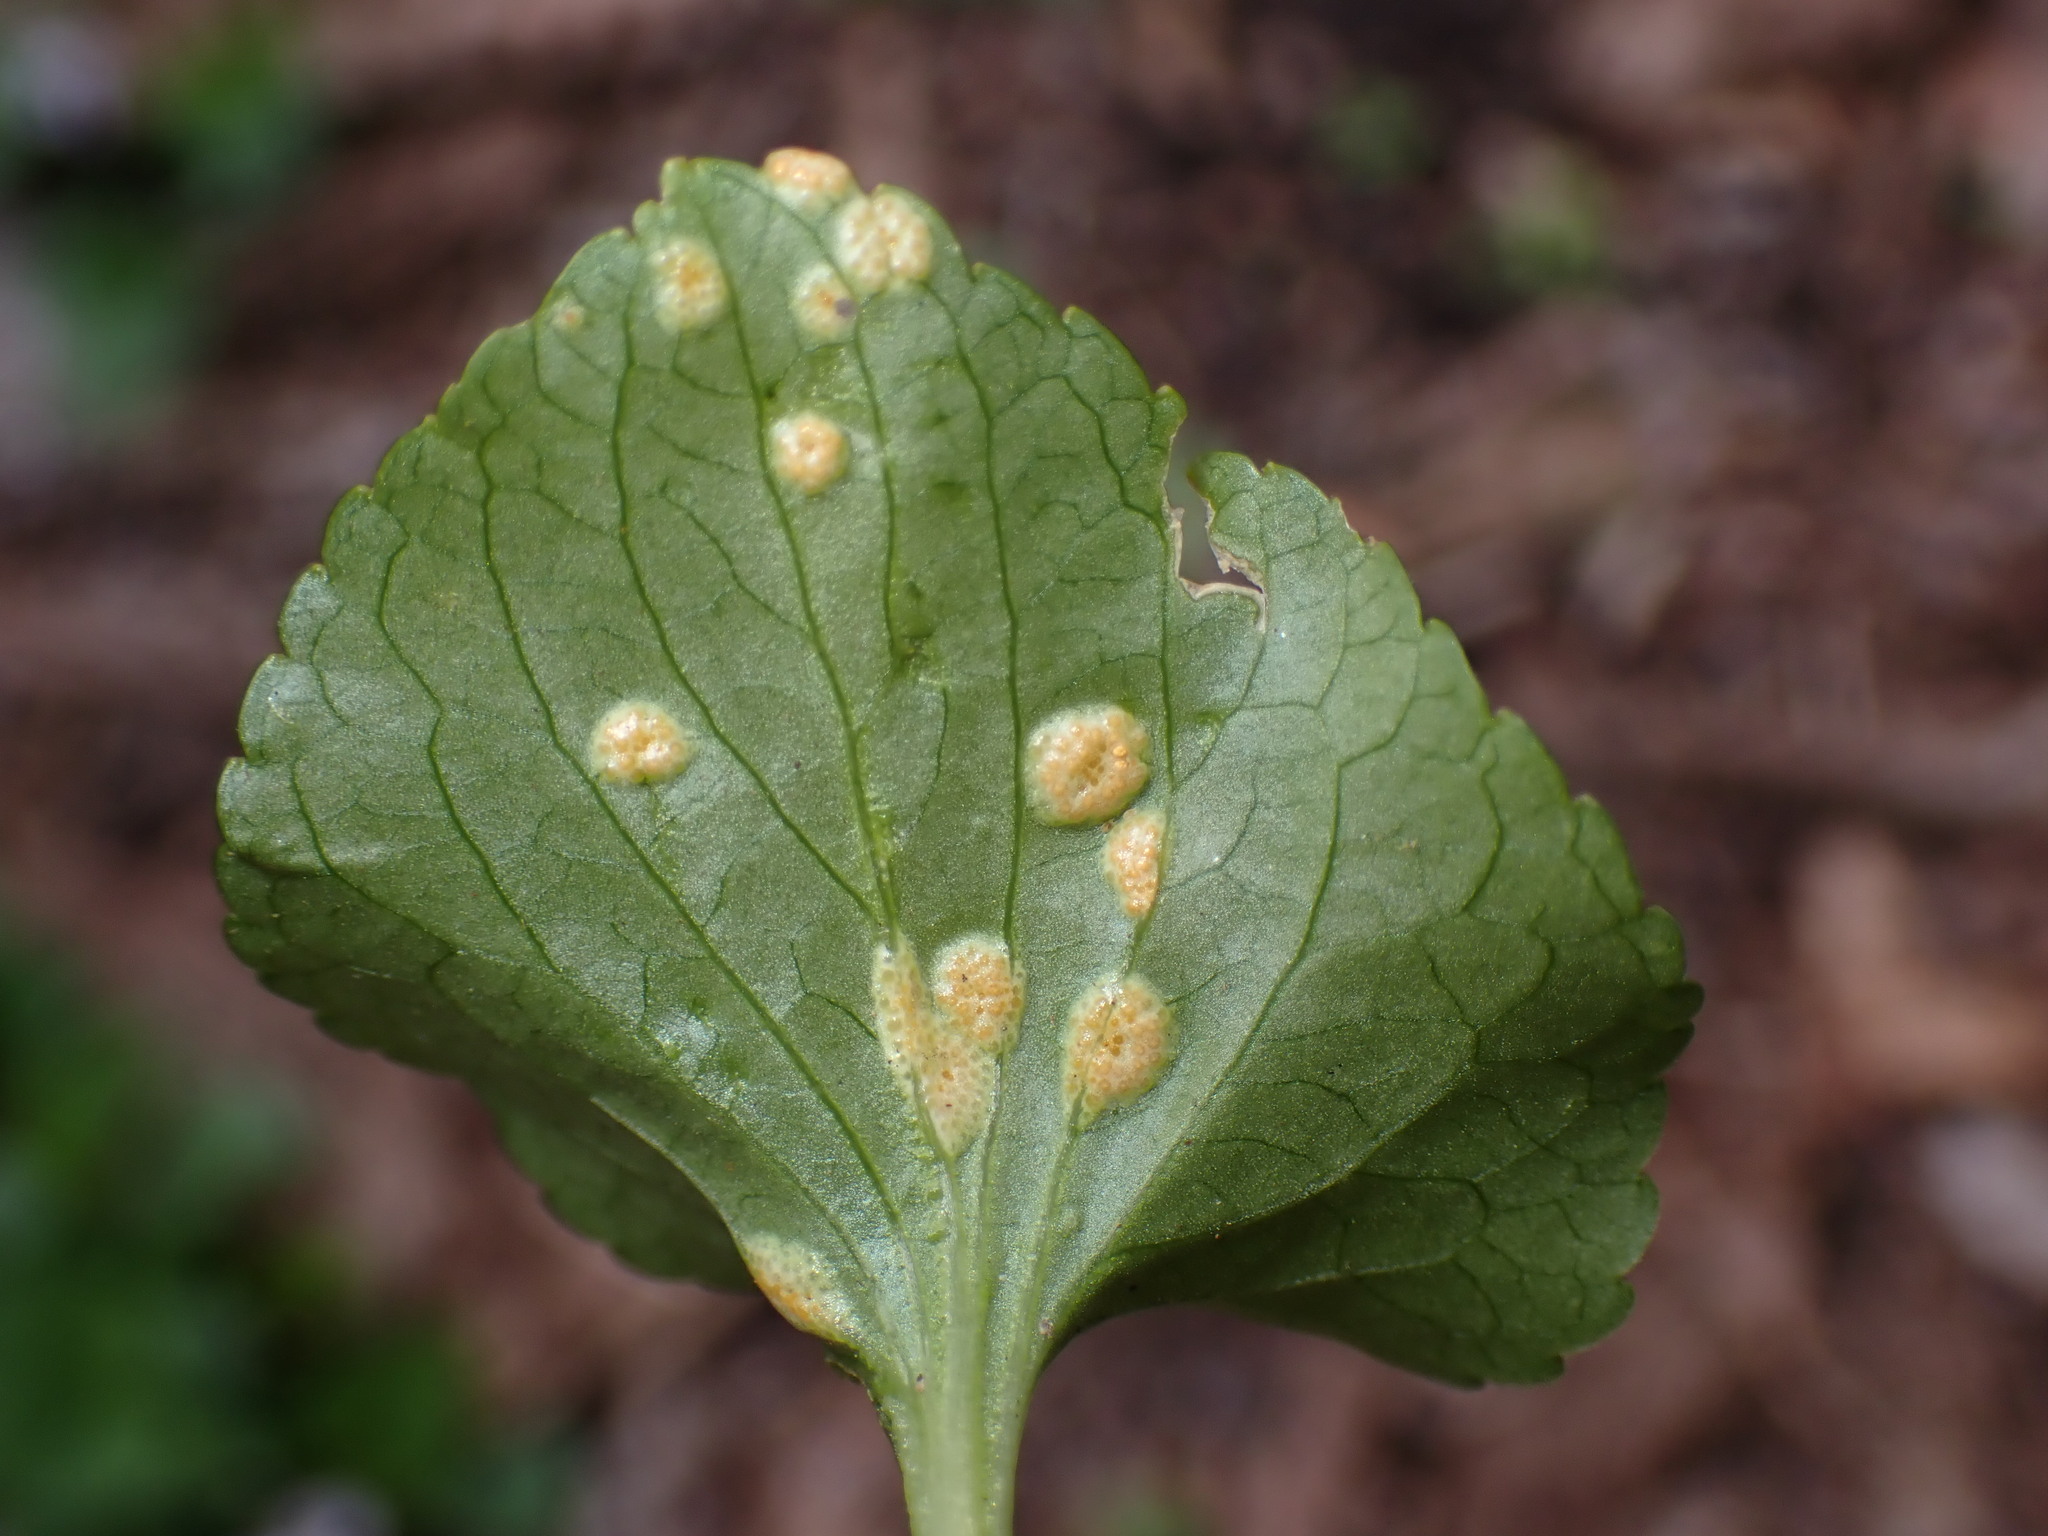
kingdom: Fungi
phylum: Basidiomycota
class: Pucciniomycetes
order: Pucciniales
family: Pucciniaceae
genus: Puccinia
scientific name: Puccinia violae
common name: Violet rust
